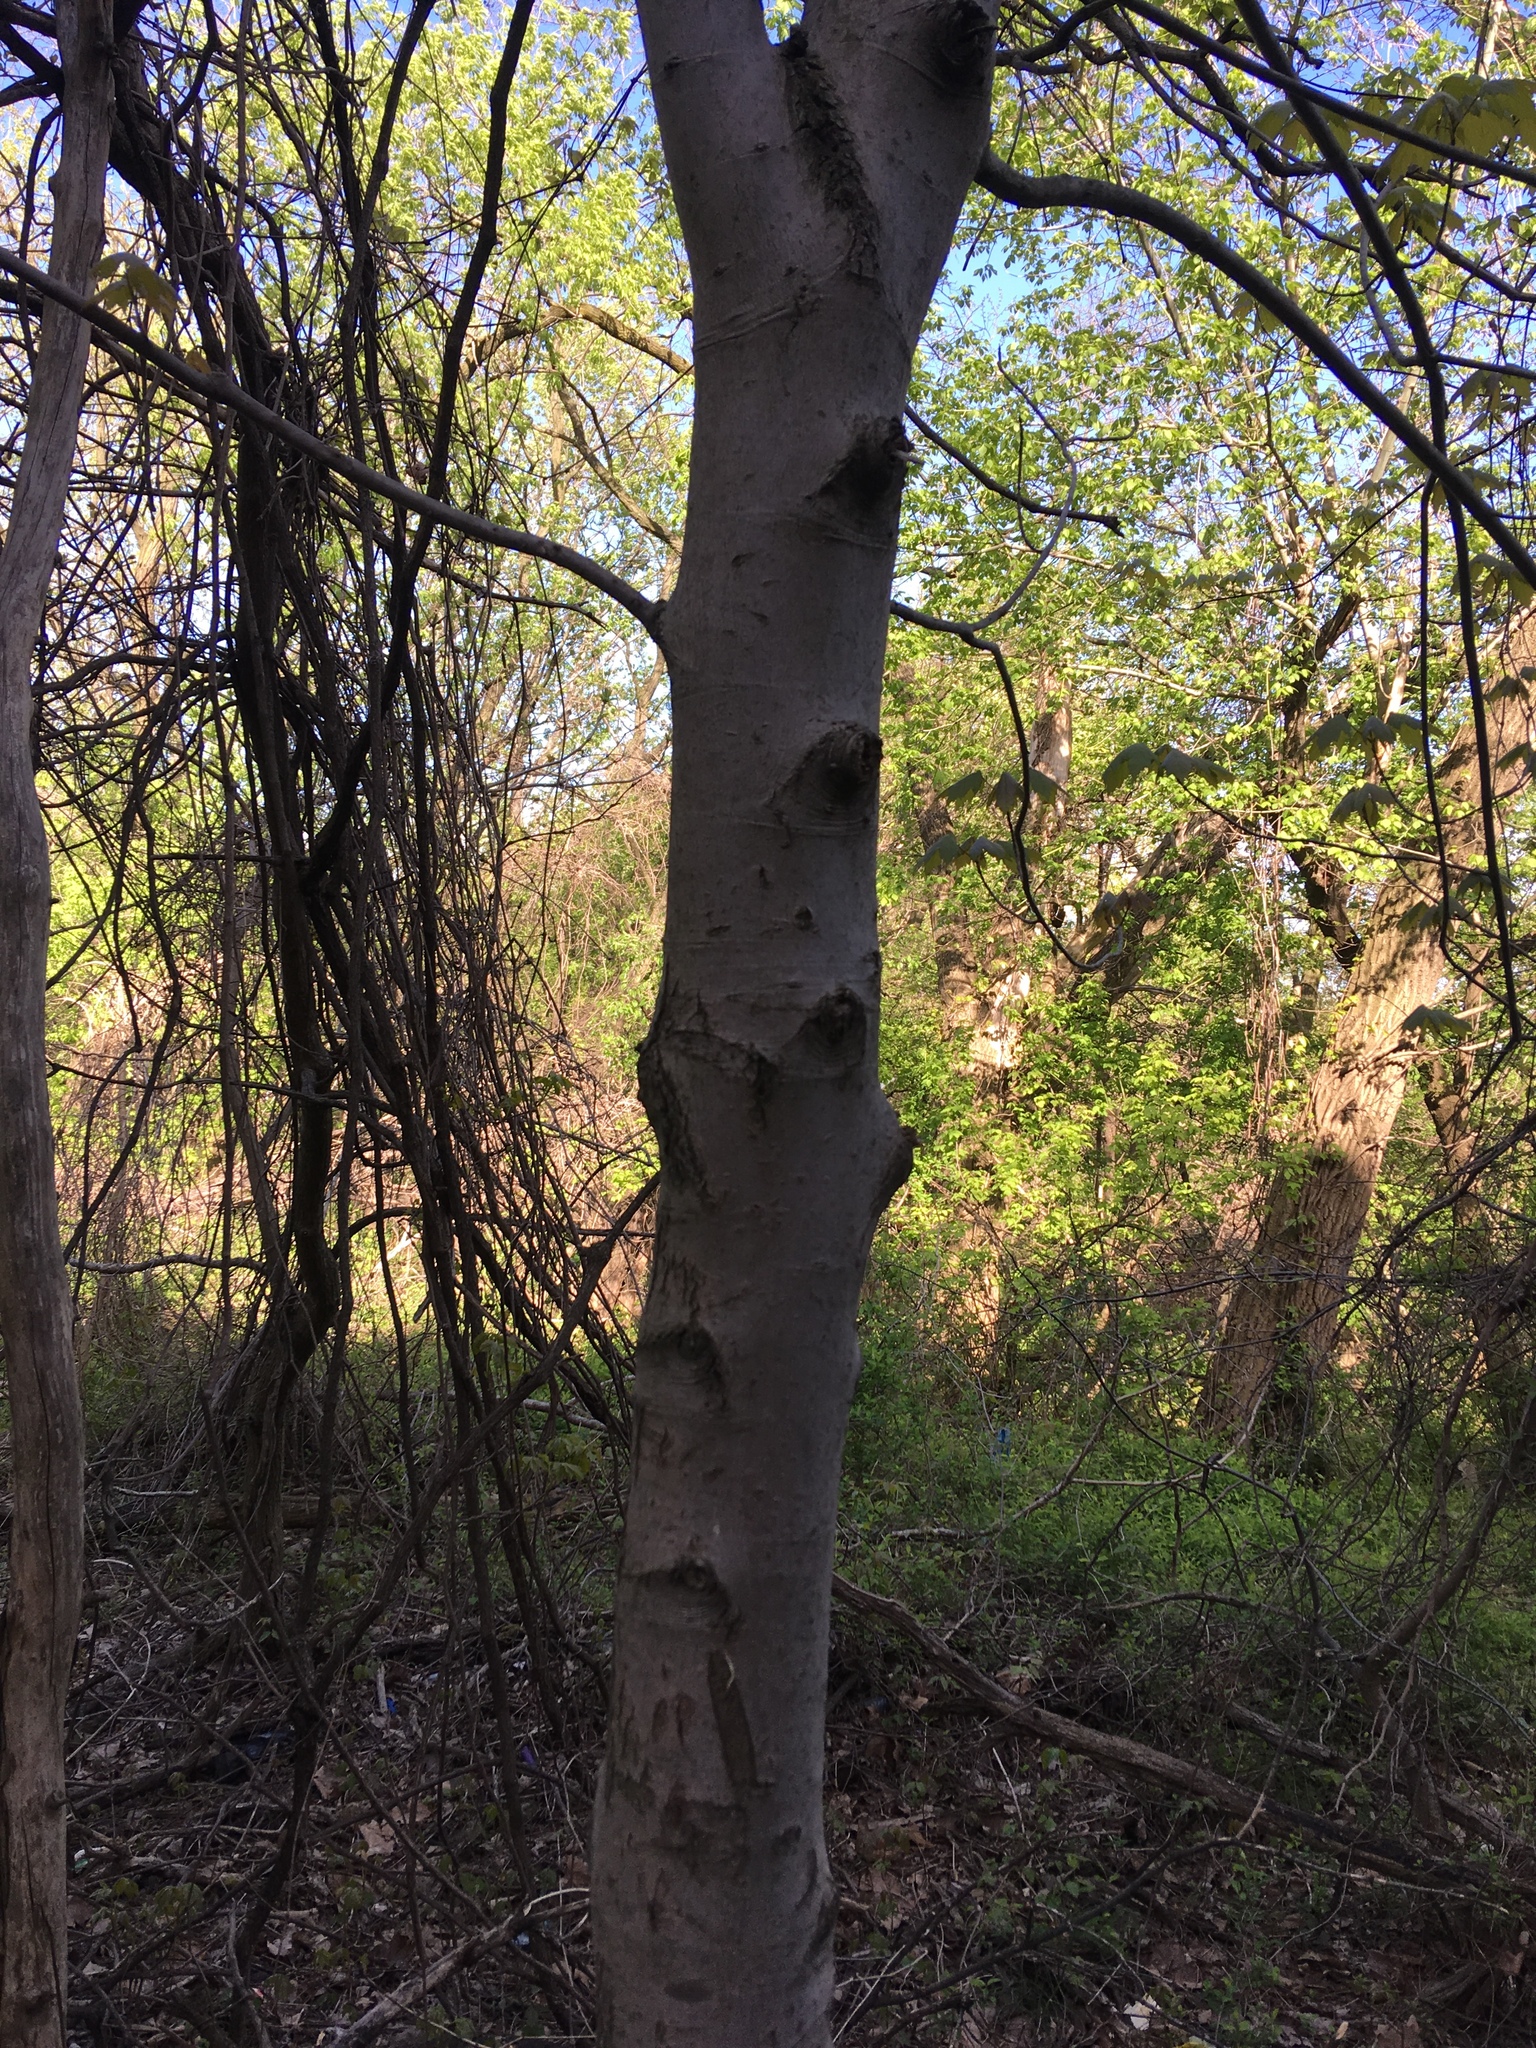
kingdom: Plantae
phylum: Tracheophyta
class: Magnoliopsida
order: Sapindales
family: Sapindaceae
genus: Acer
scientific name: Acer rubrum
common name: Red maple
